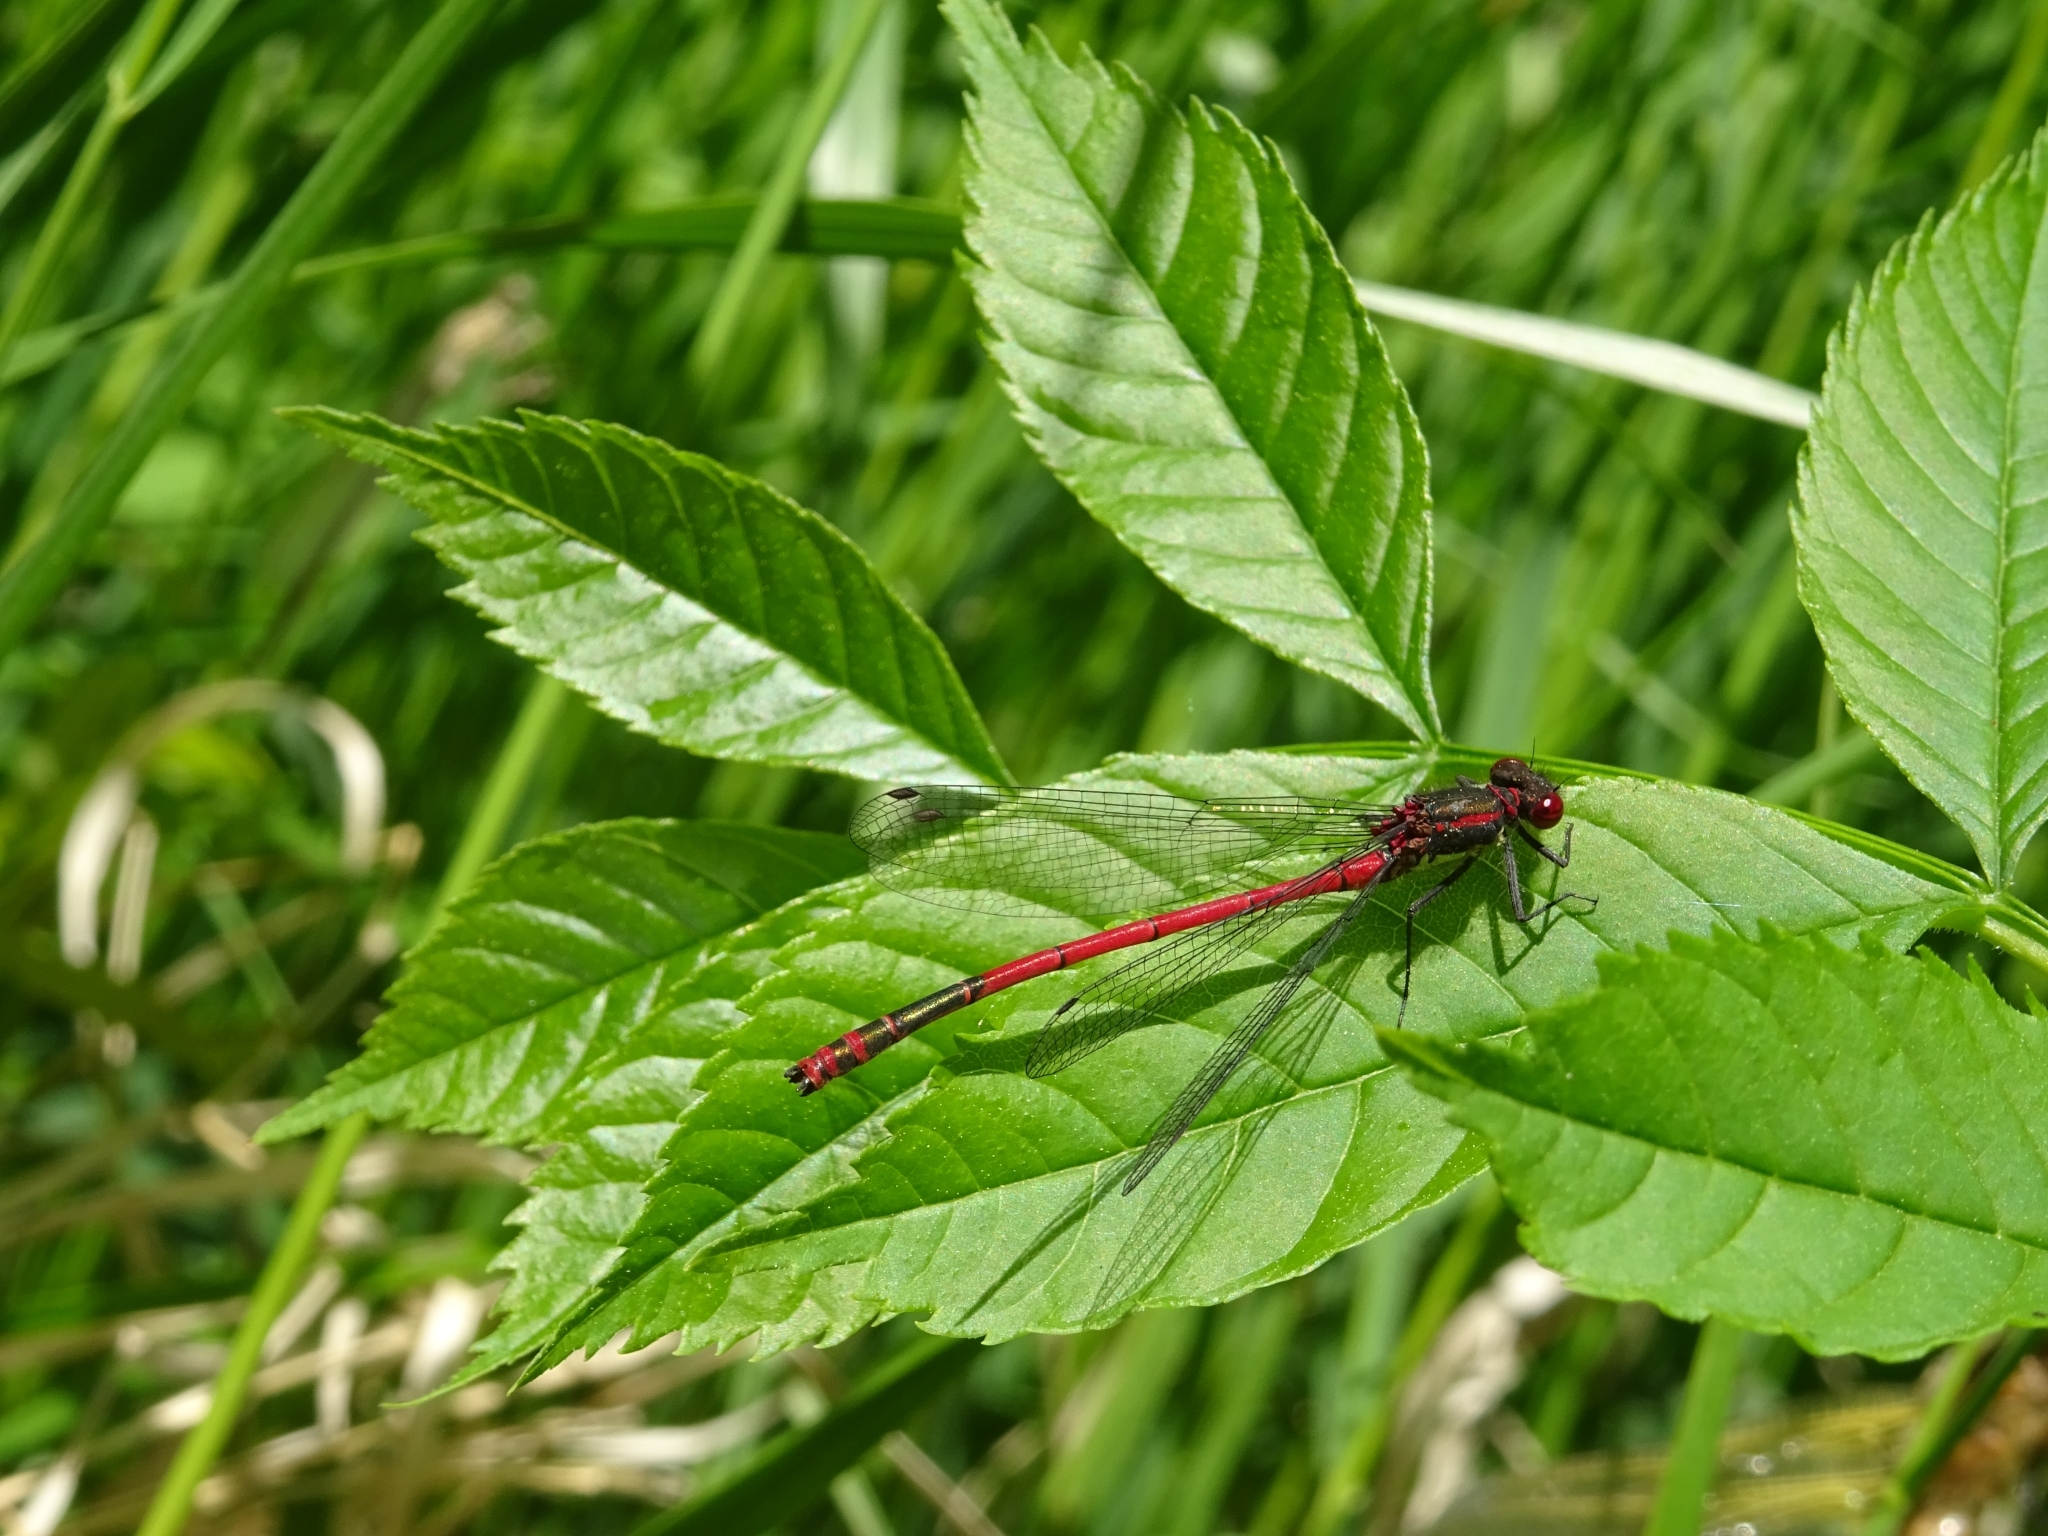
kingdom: Animalia
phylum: Arthropoda
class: Insecta
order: Odonata
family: Coenagrionidae
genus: Pyrrhosoma
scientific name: Pyrrhosoma nymphula
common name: Large red damsel
